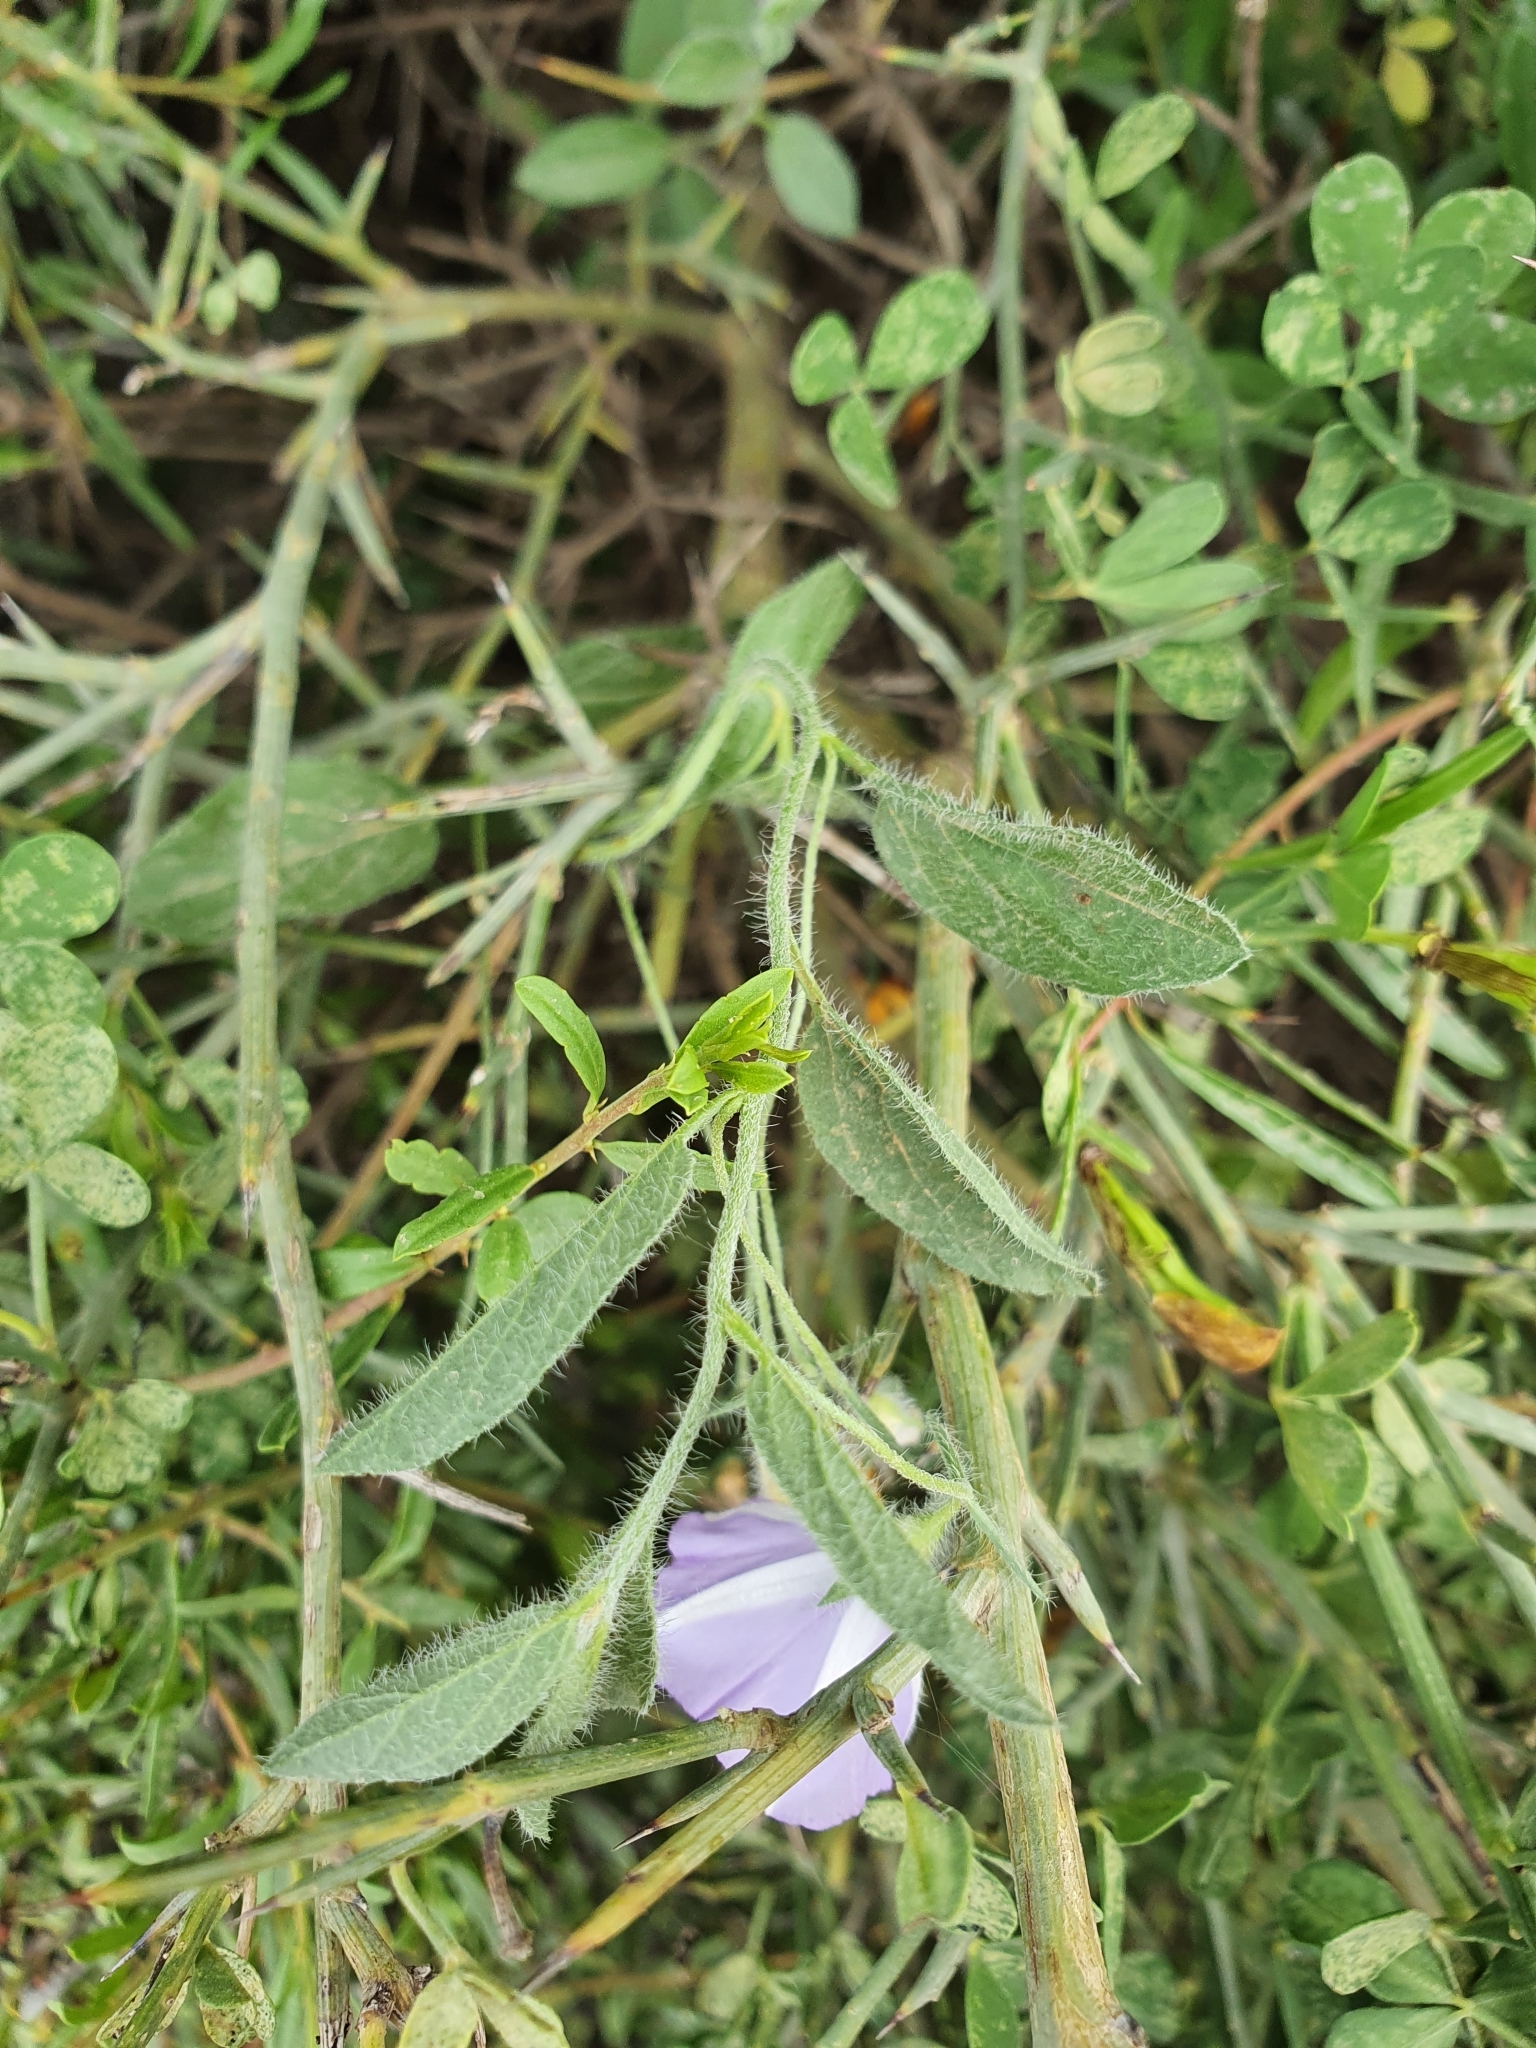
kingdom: Plantae
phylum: Tracheophyta
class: Magnoliopsida
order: Solanales
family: Convolvulaceae
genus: Convolvulus
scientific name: Convolvulus sabatius
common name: Ground blue-convolvulus
